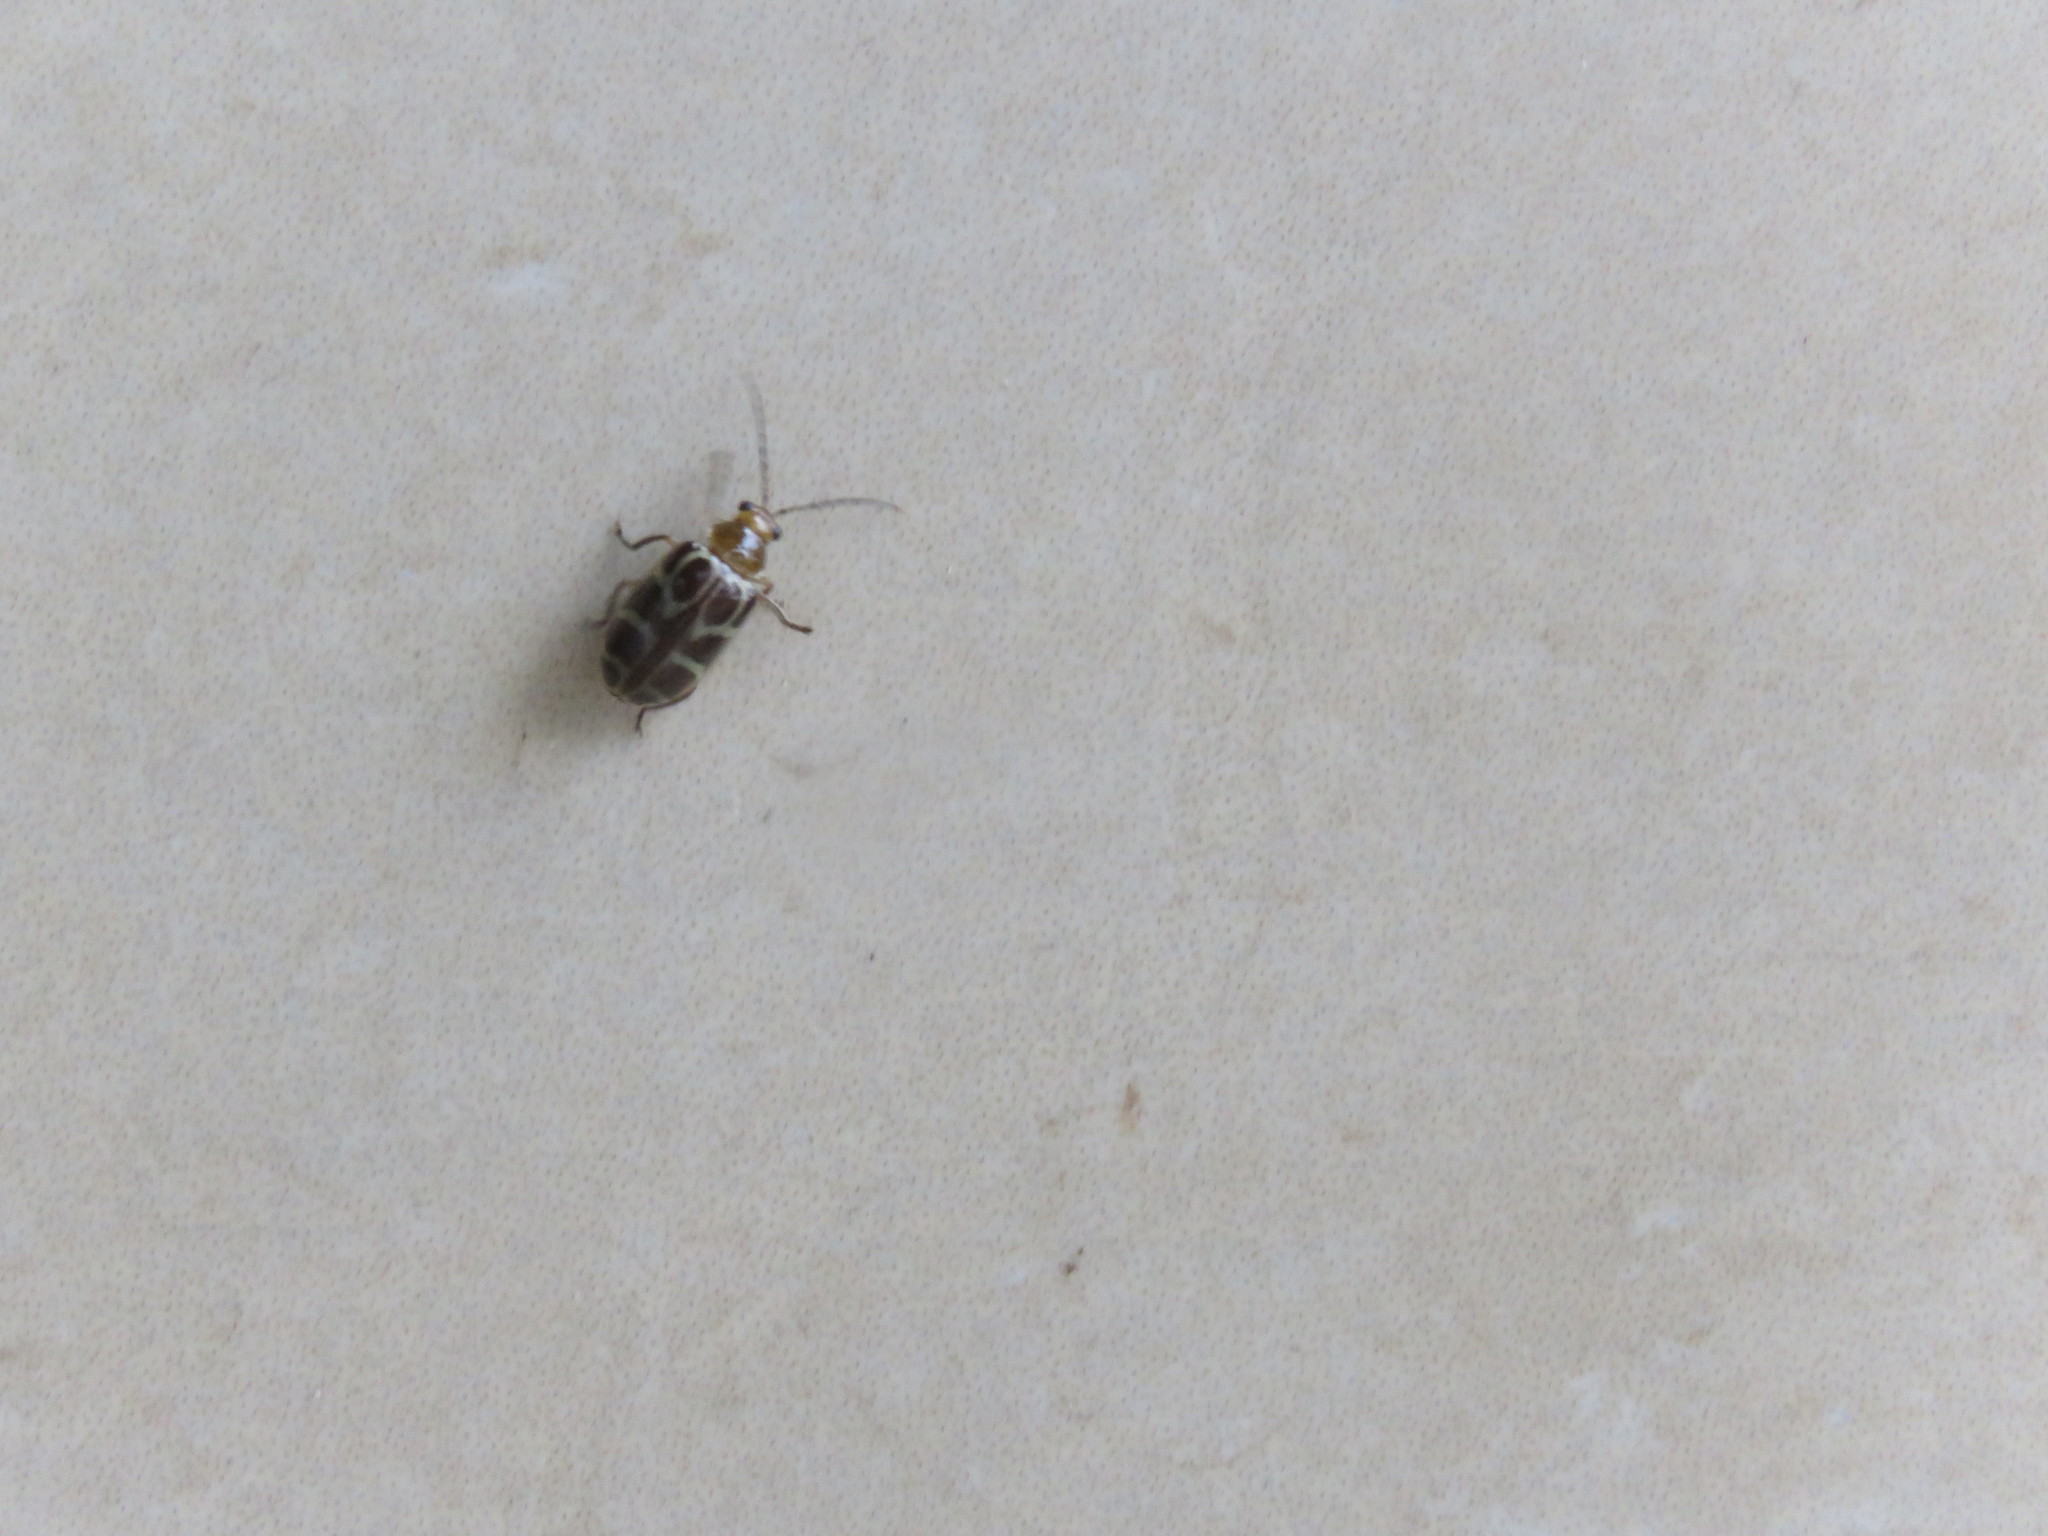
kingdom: Animalia
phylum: Arthropoda
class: Insecta
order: Coleoptera
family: Chrysomelidae
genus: Exora
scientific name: Exora olivacea
